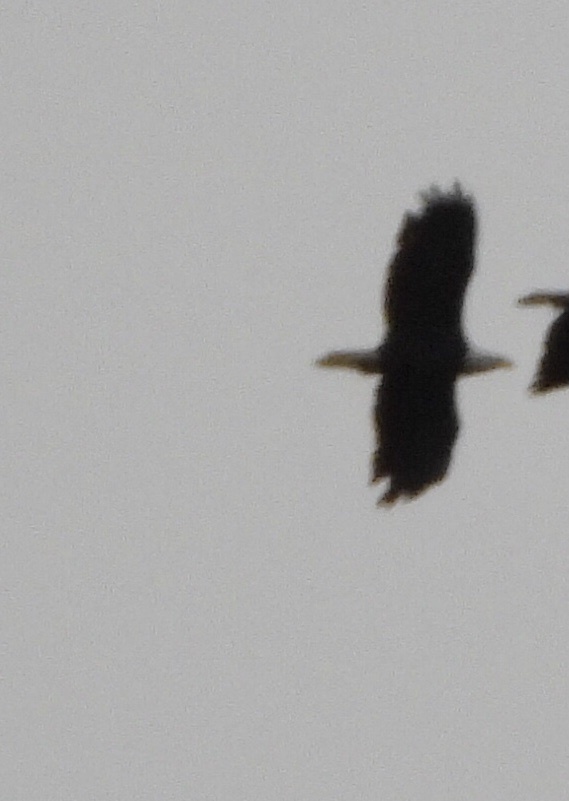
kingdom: Animalia
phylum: Chordata
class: Aves
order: Accipitriformes
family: Accipitridae
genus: Haliaeetus
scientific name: Haliaeetus leucocephalus
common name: Bald eagle
